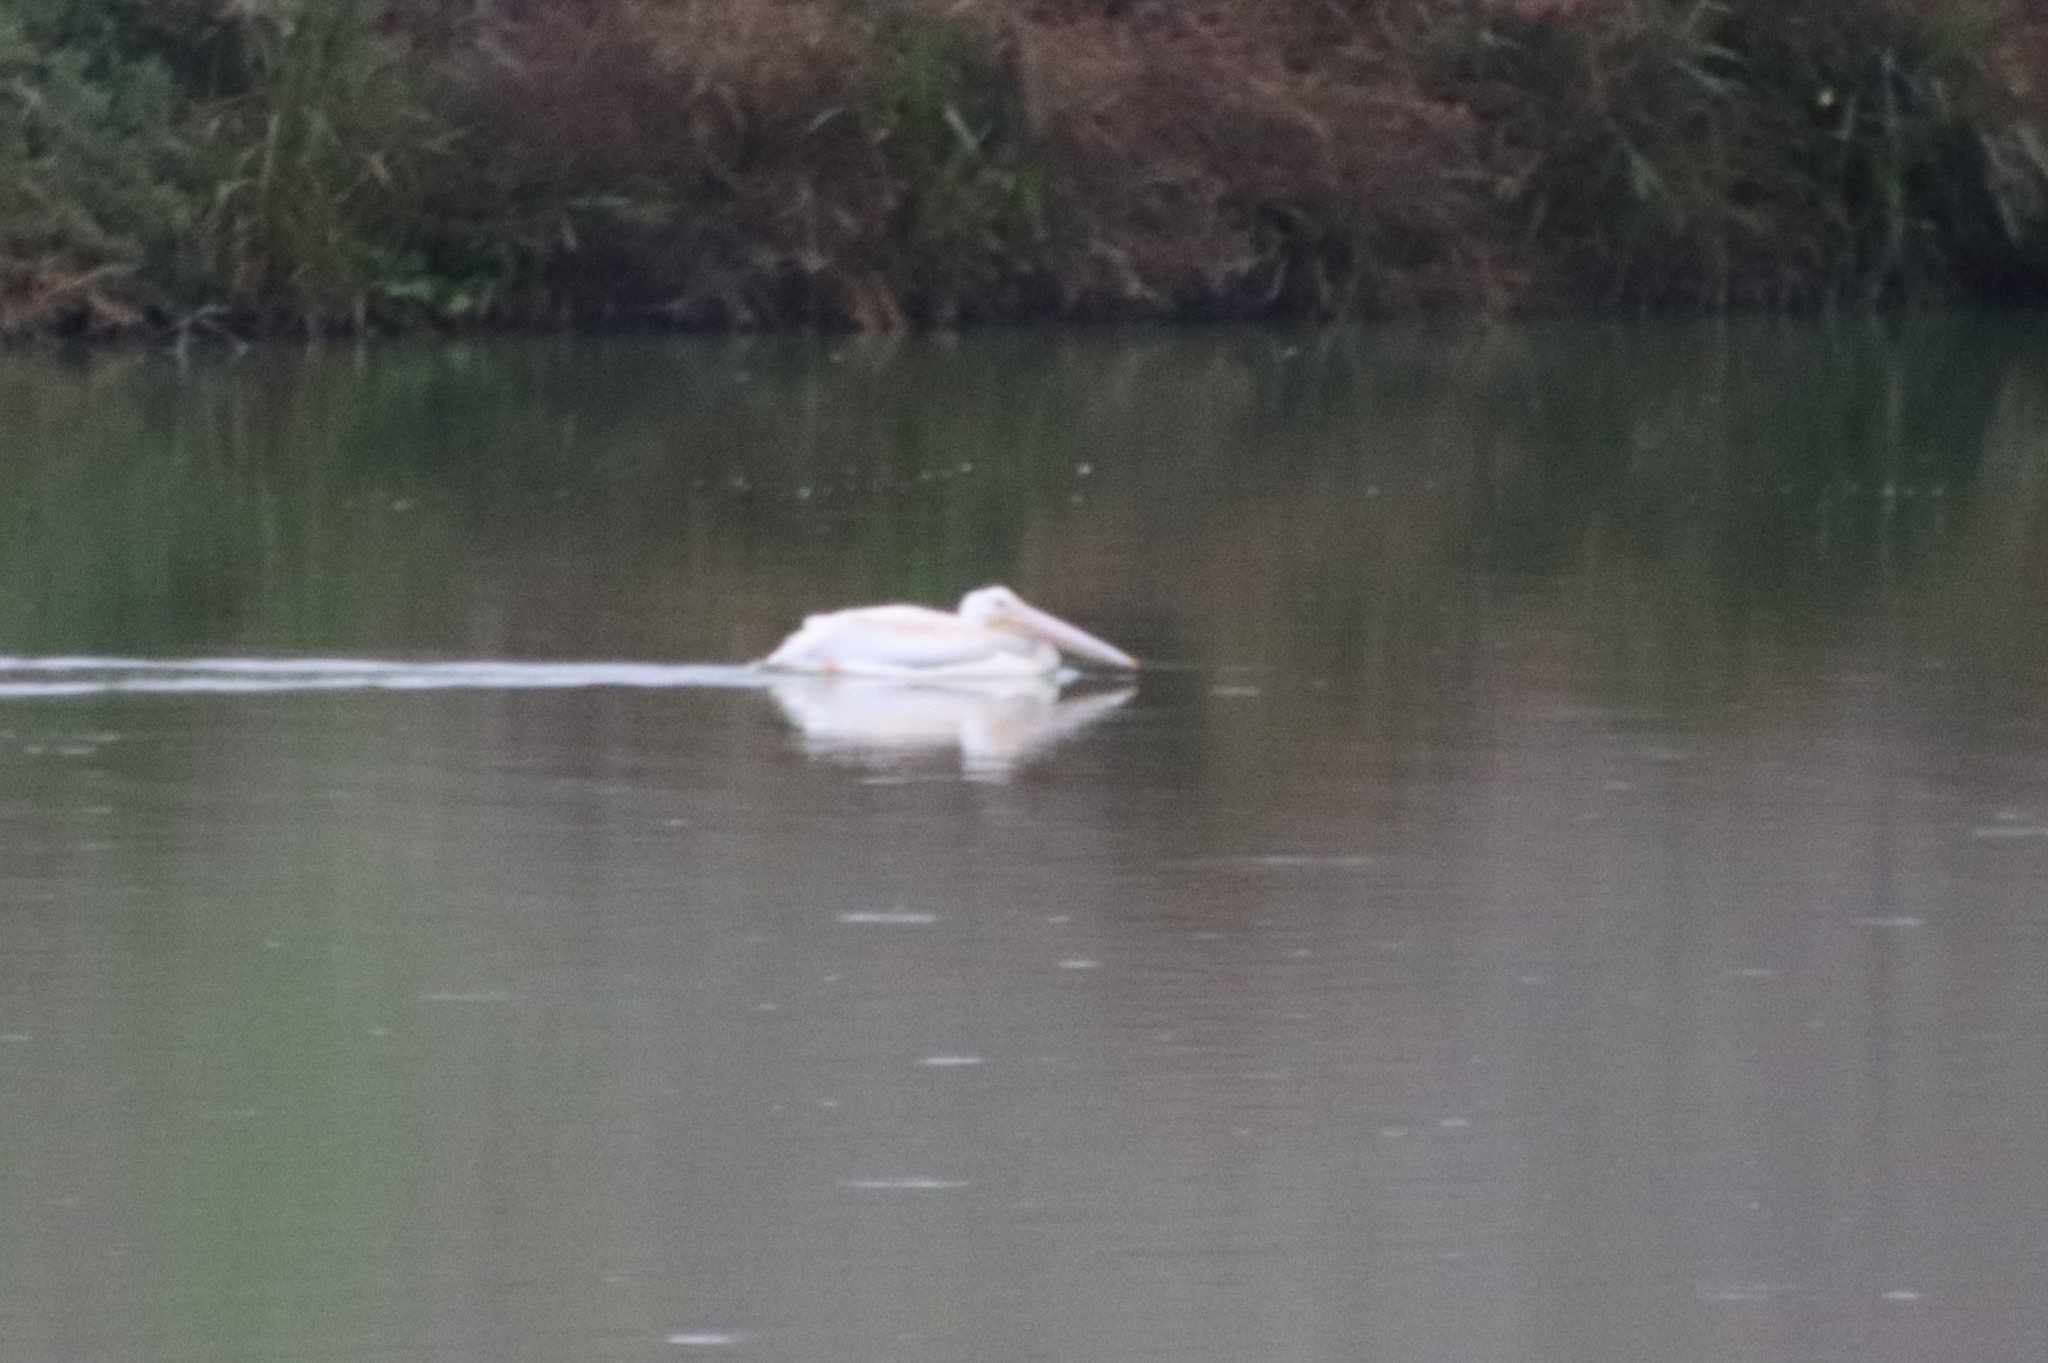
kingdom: Animalia
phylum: Chordata
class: Aves
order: Pelecaniformes
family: Pelecanidae
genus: Pelecanus
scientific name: Pelecanus erythrorhynchos
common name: American white pelican
